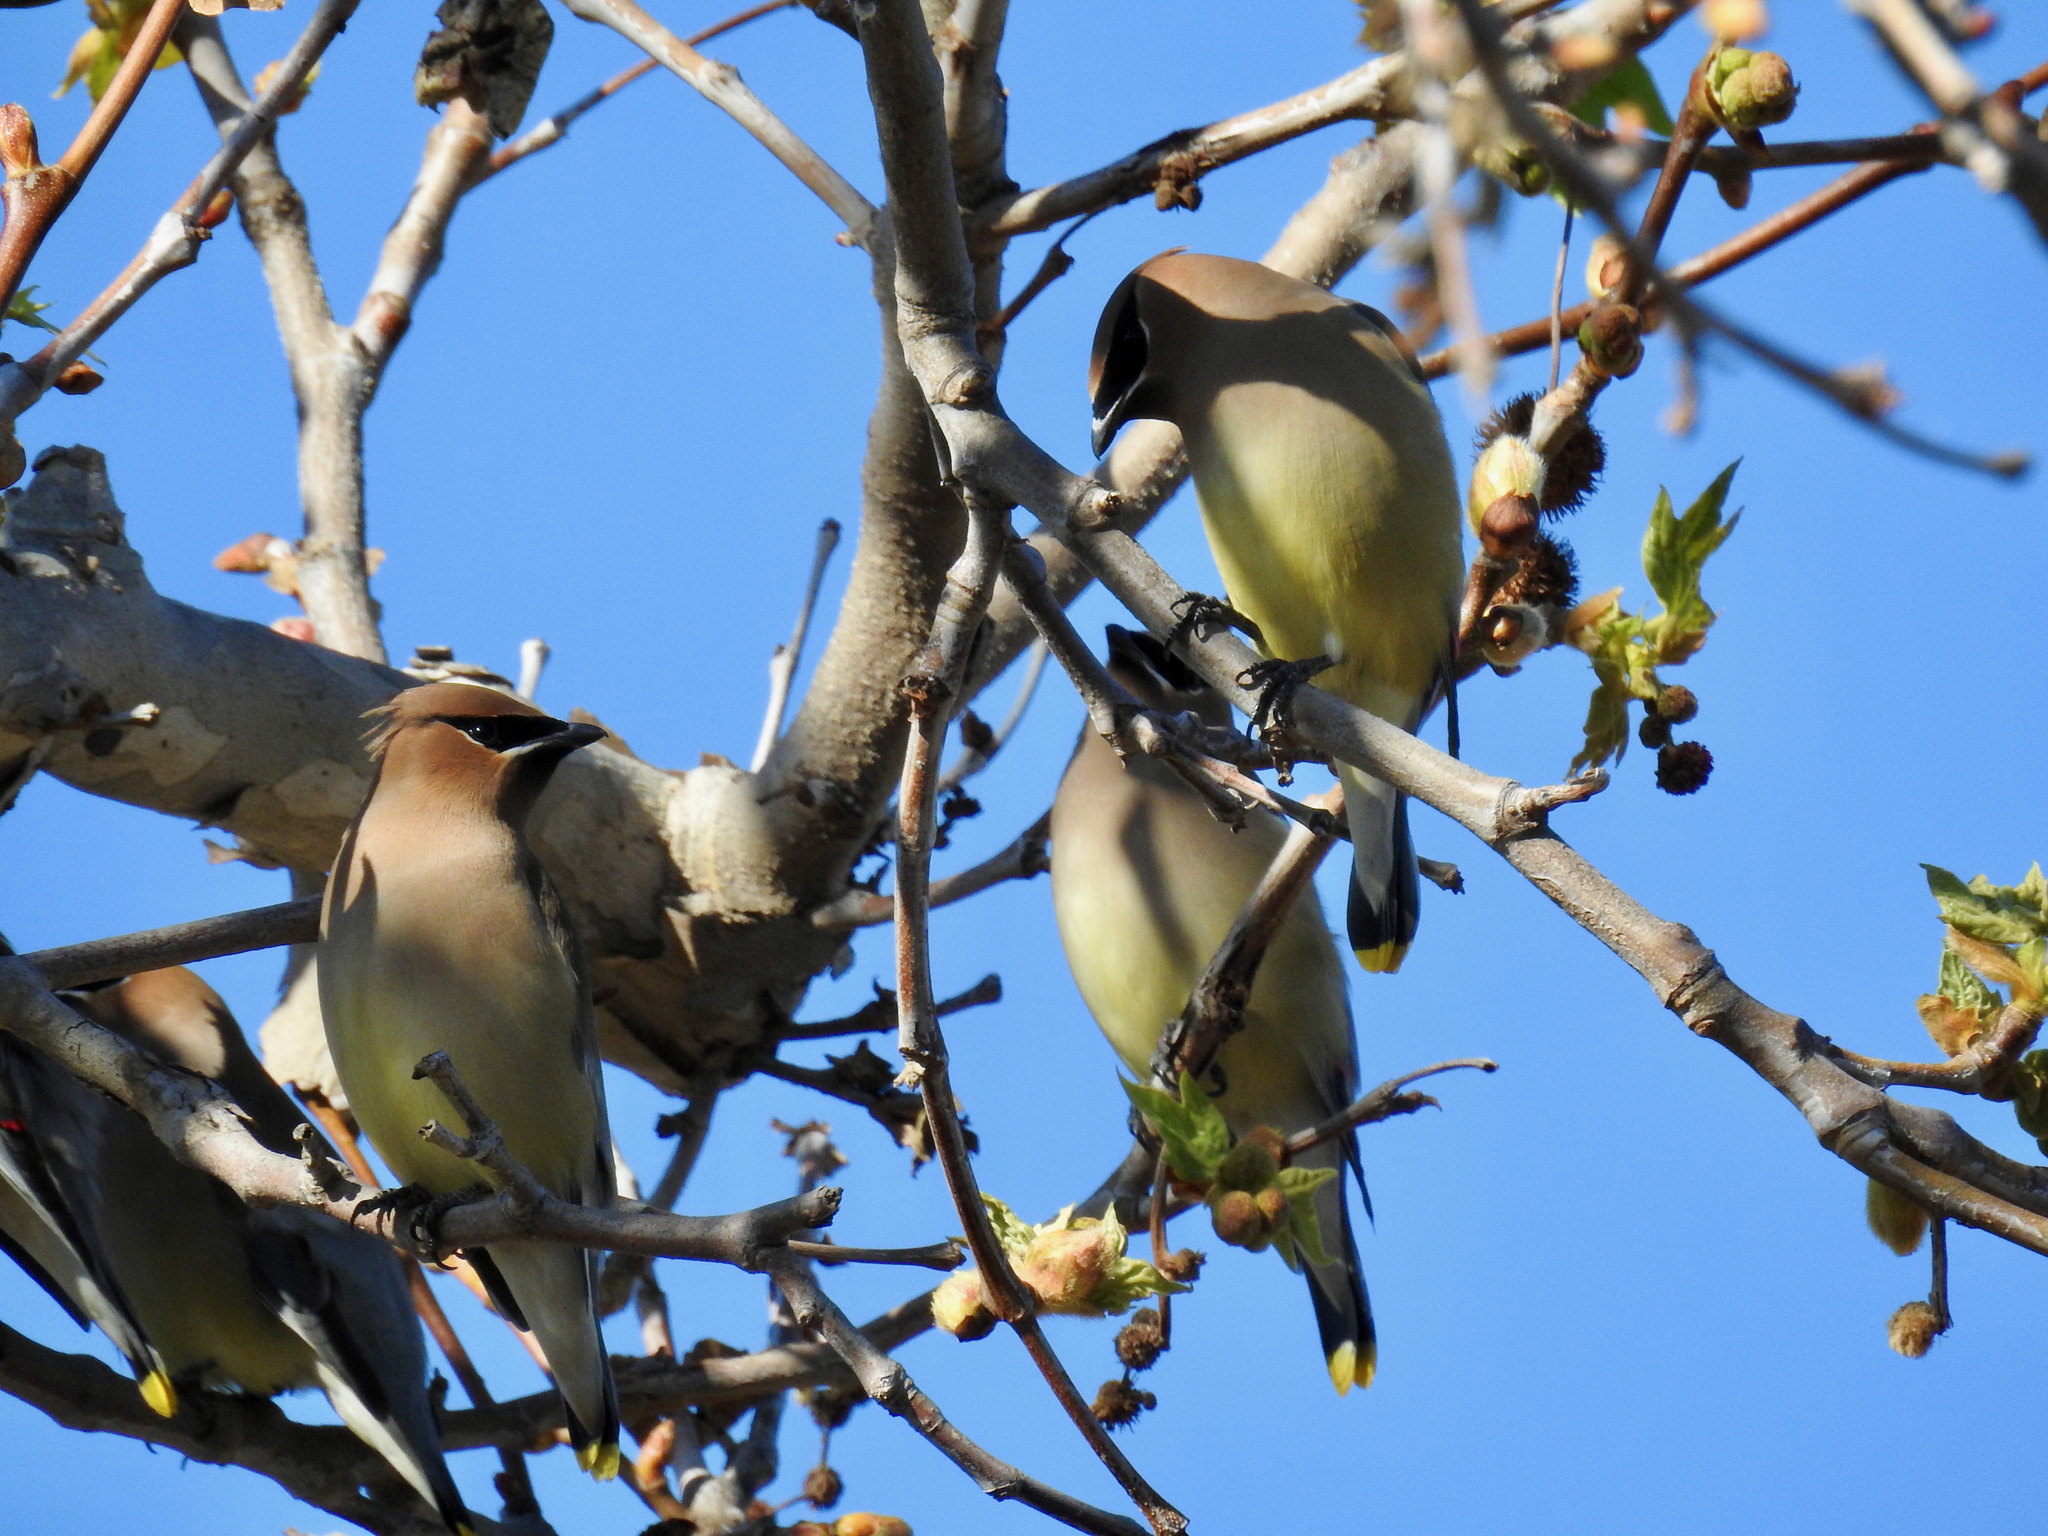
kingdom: Animalia
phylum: Chordata
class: Aves
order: Passeriformes
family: Bombycillidae
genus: Bombycilla
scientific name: Bombycilla cedrorum
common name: Cedar waxwing
